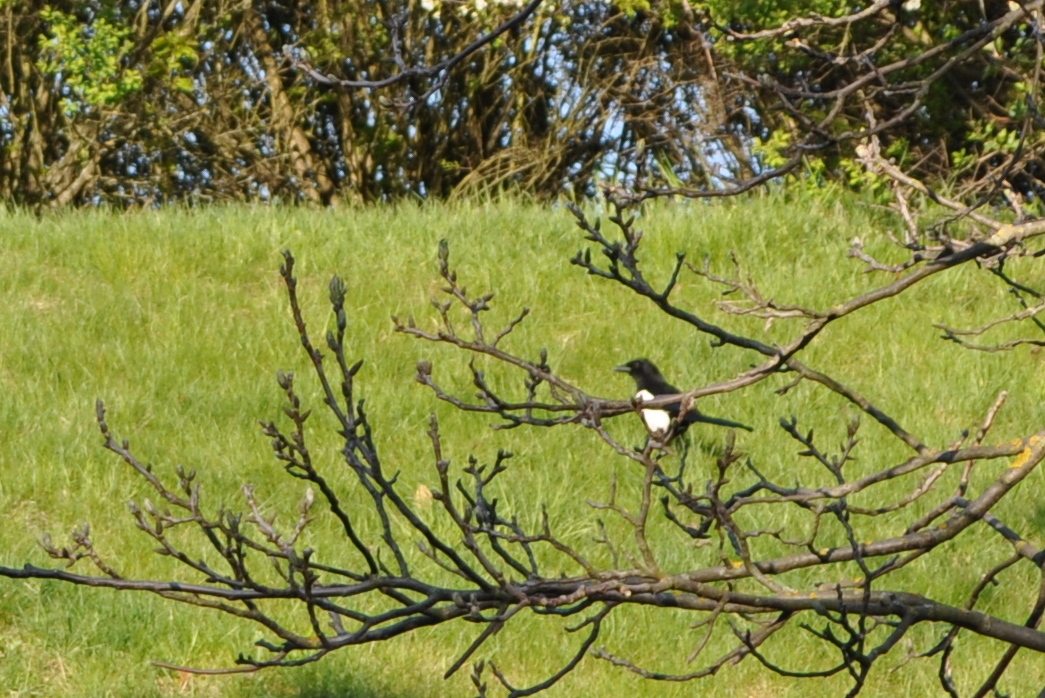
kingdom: Animalia
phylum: Chordata
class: Aves
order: Passeriformes
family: Corvidae
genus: Pica
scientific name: Pica pica
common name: Eurasian magpie
